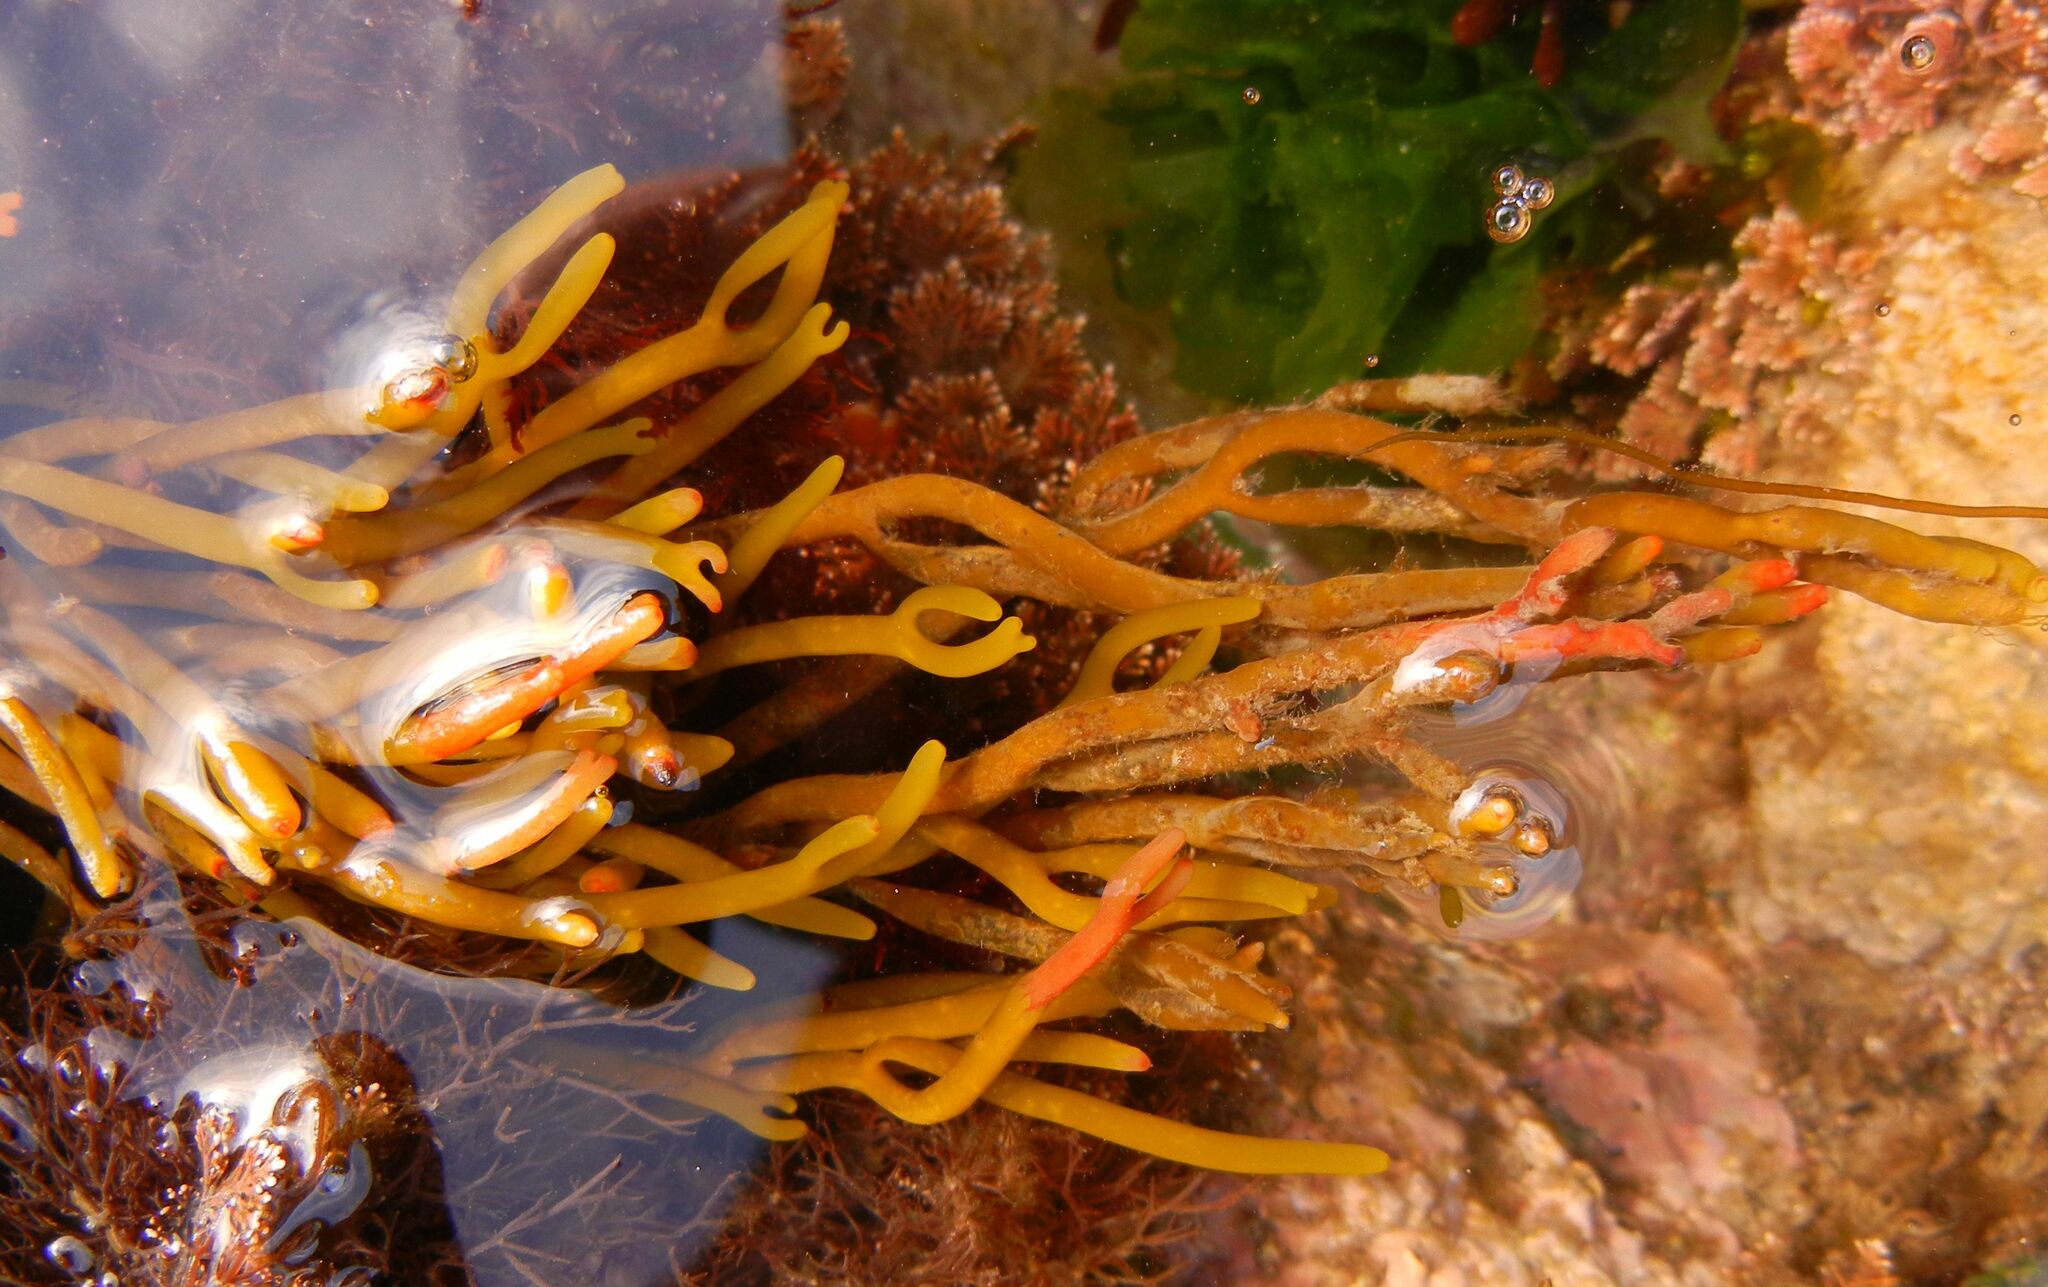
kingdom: Chromista
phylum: Ochrophyta
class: Phaeophyceae
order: Fucales
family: Sargassaceae
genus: Bifurcaria
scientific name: Bifurcaria bifurcata
